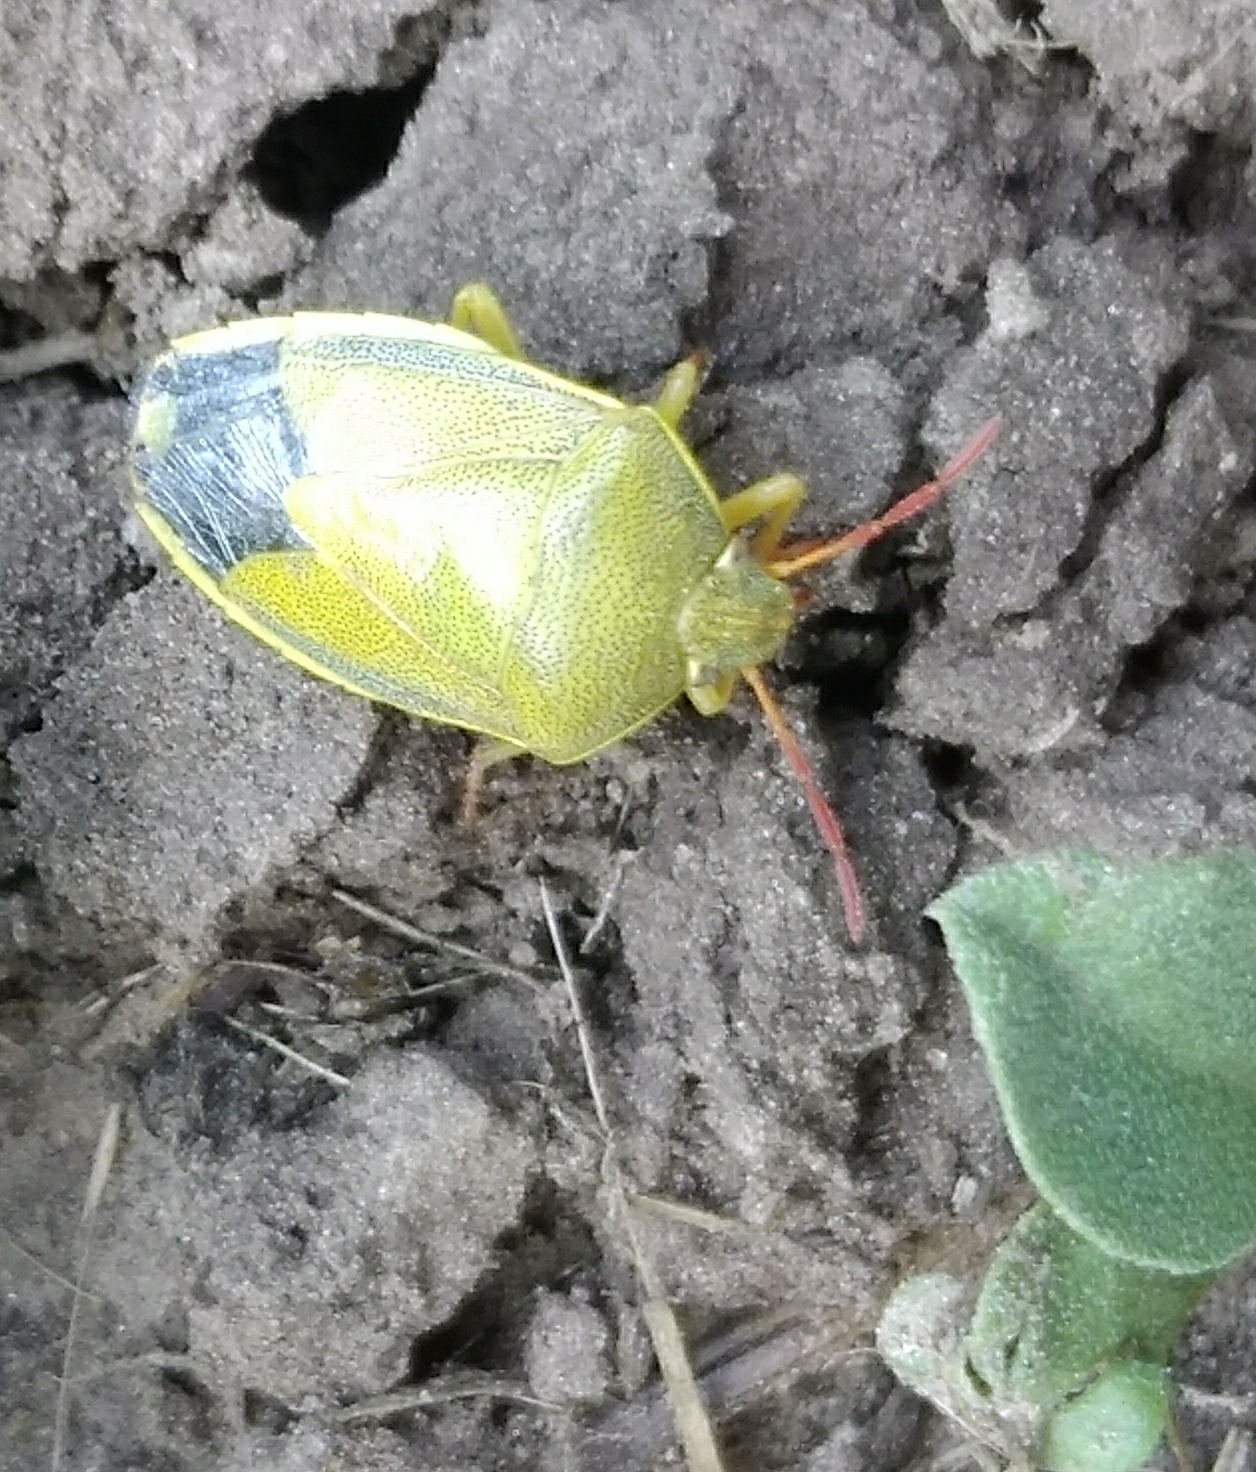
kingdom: Animalia
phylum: Arthropoda
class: Insecta
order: Hemiptera
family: Pentatomidae
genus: Piezodorus
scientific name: Piezodorus lituratus
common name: Stink bug
